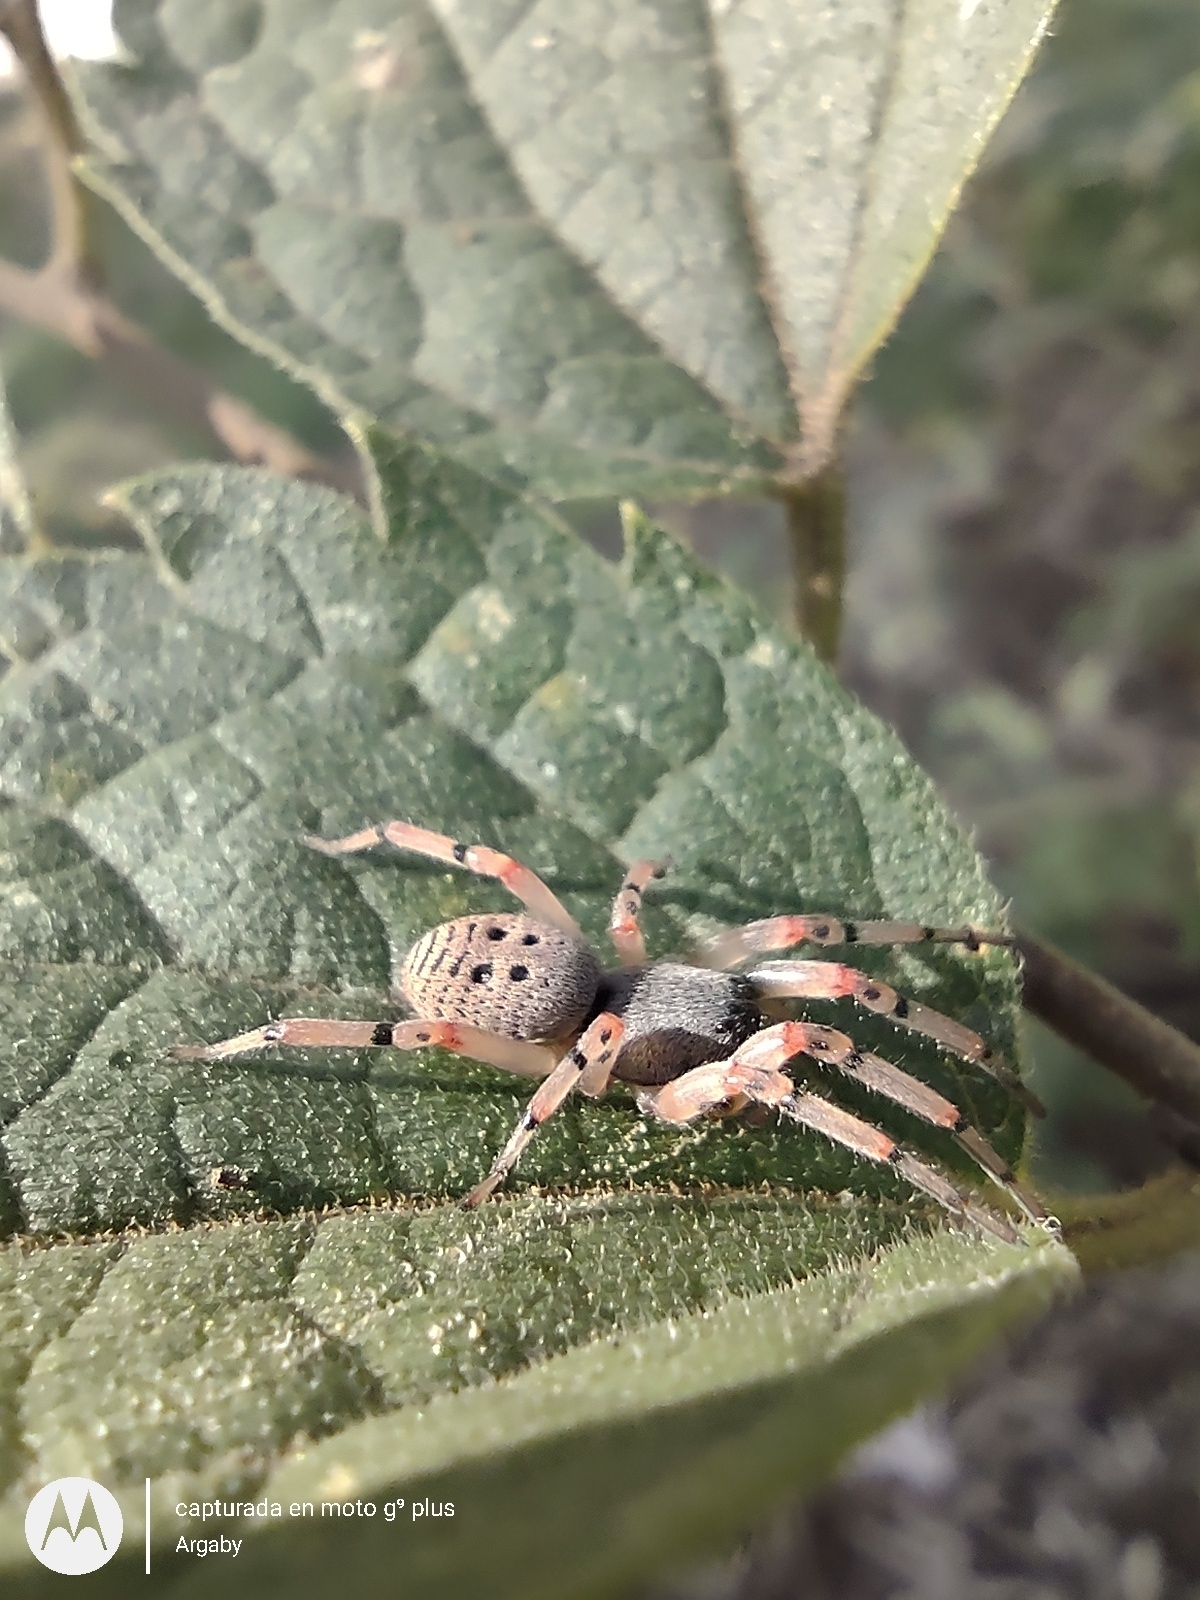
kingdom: Animalia
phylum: Arthropoda
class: Arachnida
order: Araneae
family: Trachelidae
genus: Trachelopachys
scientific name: Trachelopachys
